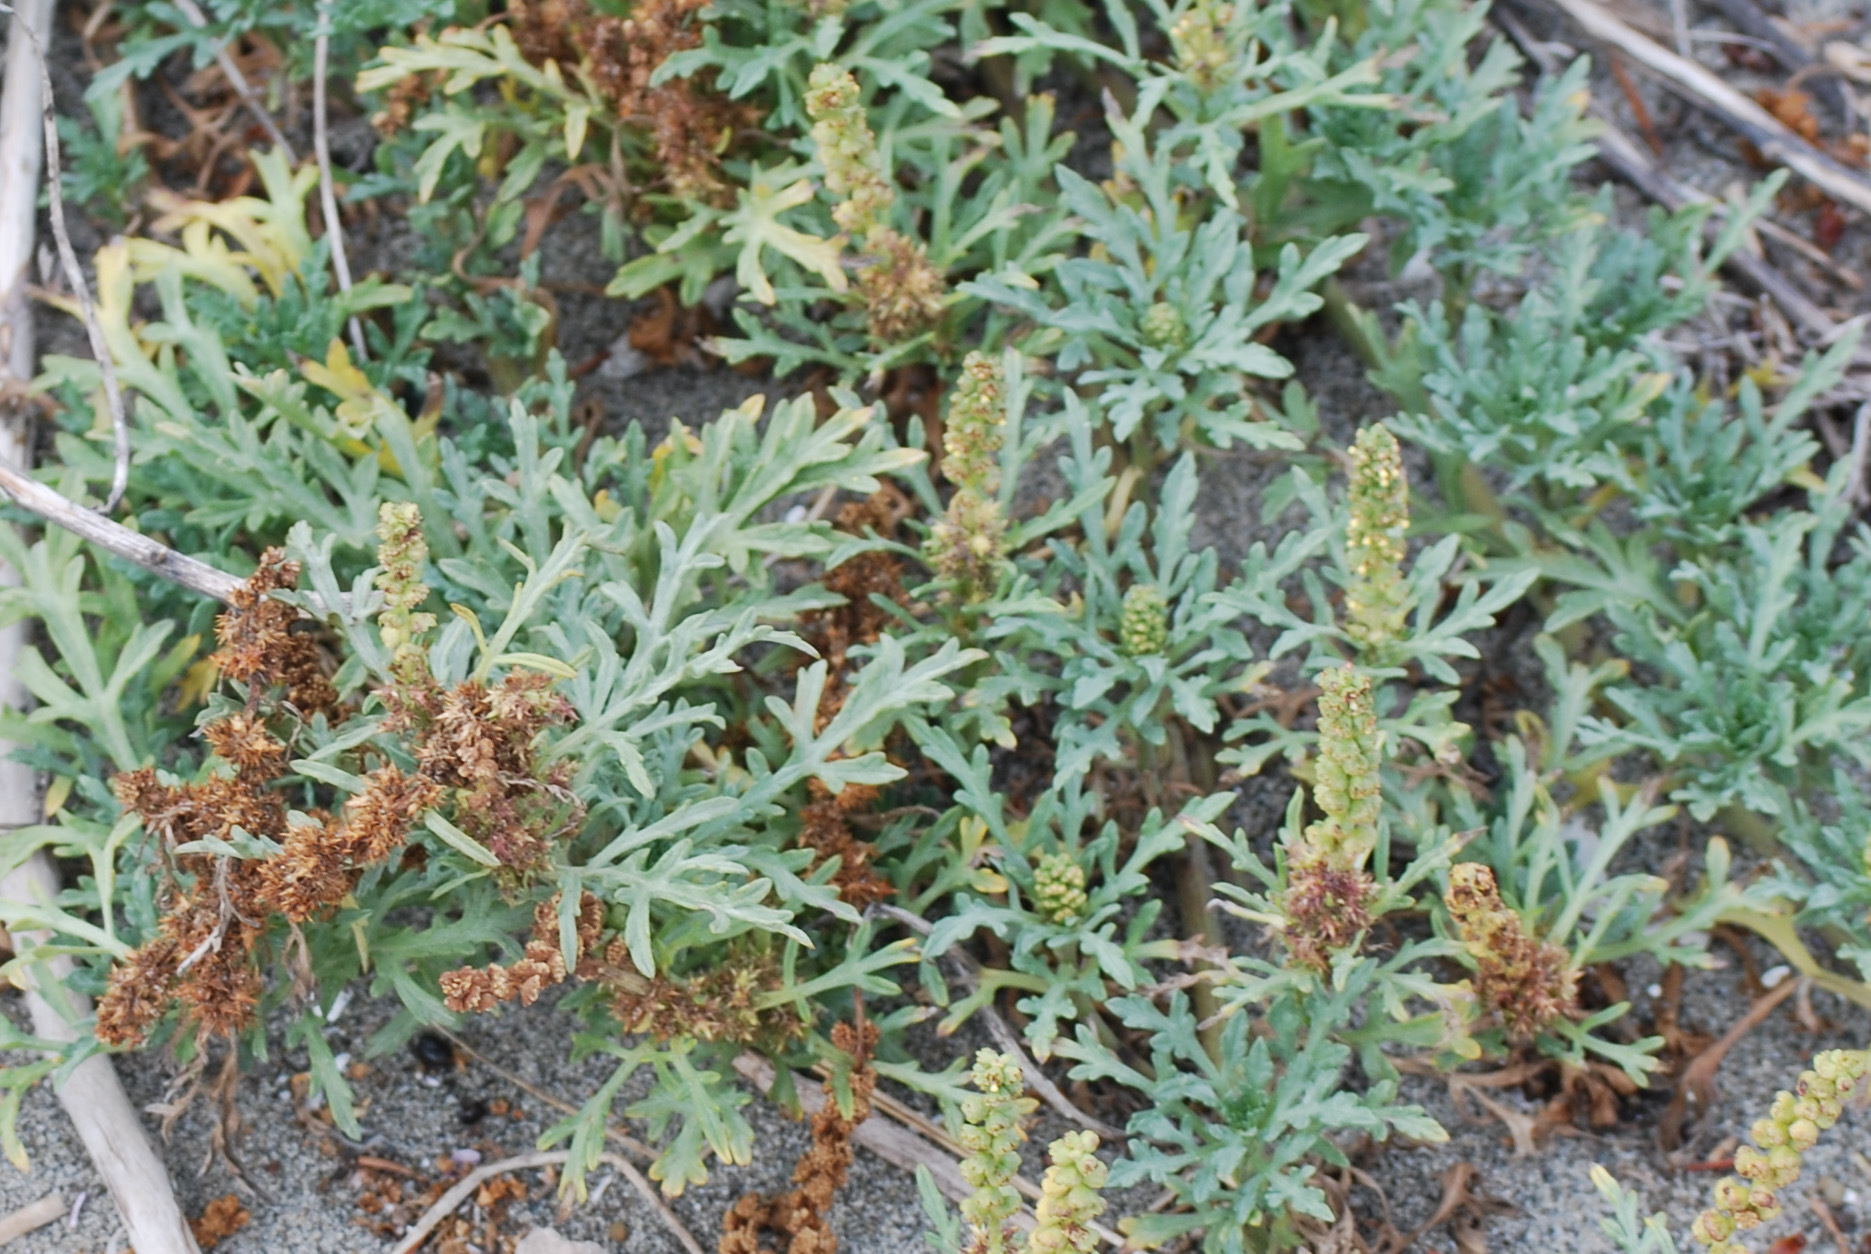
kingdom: Plantae
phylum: Tracheophyta
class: Magnoliopsida
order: Asterales
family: Asteraceae
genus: Ambrosia
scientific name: Ambrosia chamissonis
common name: Beachbur
